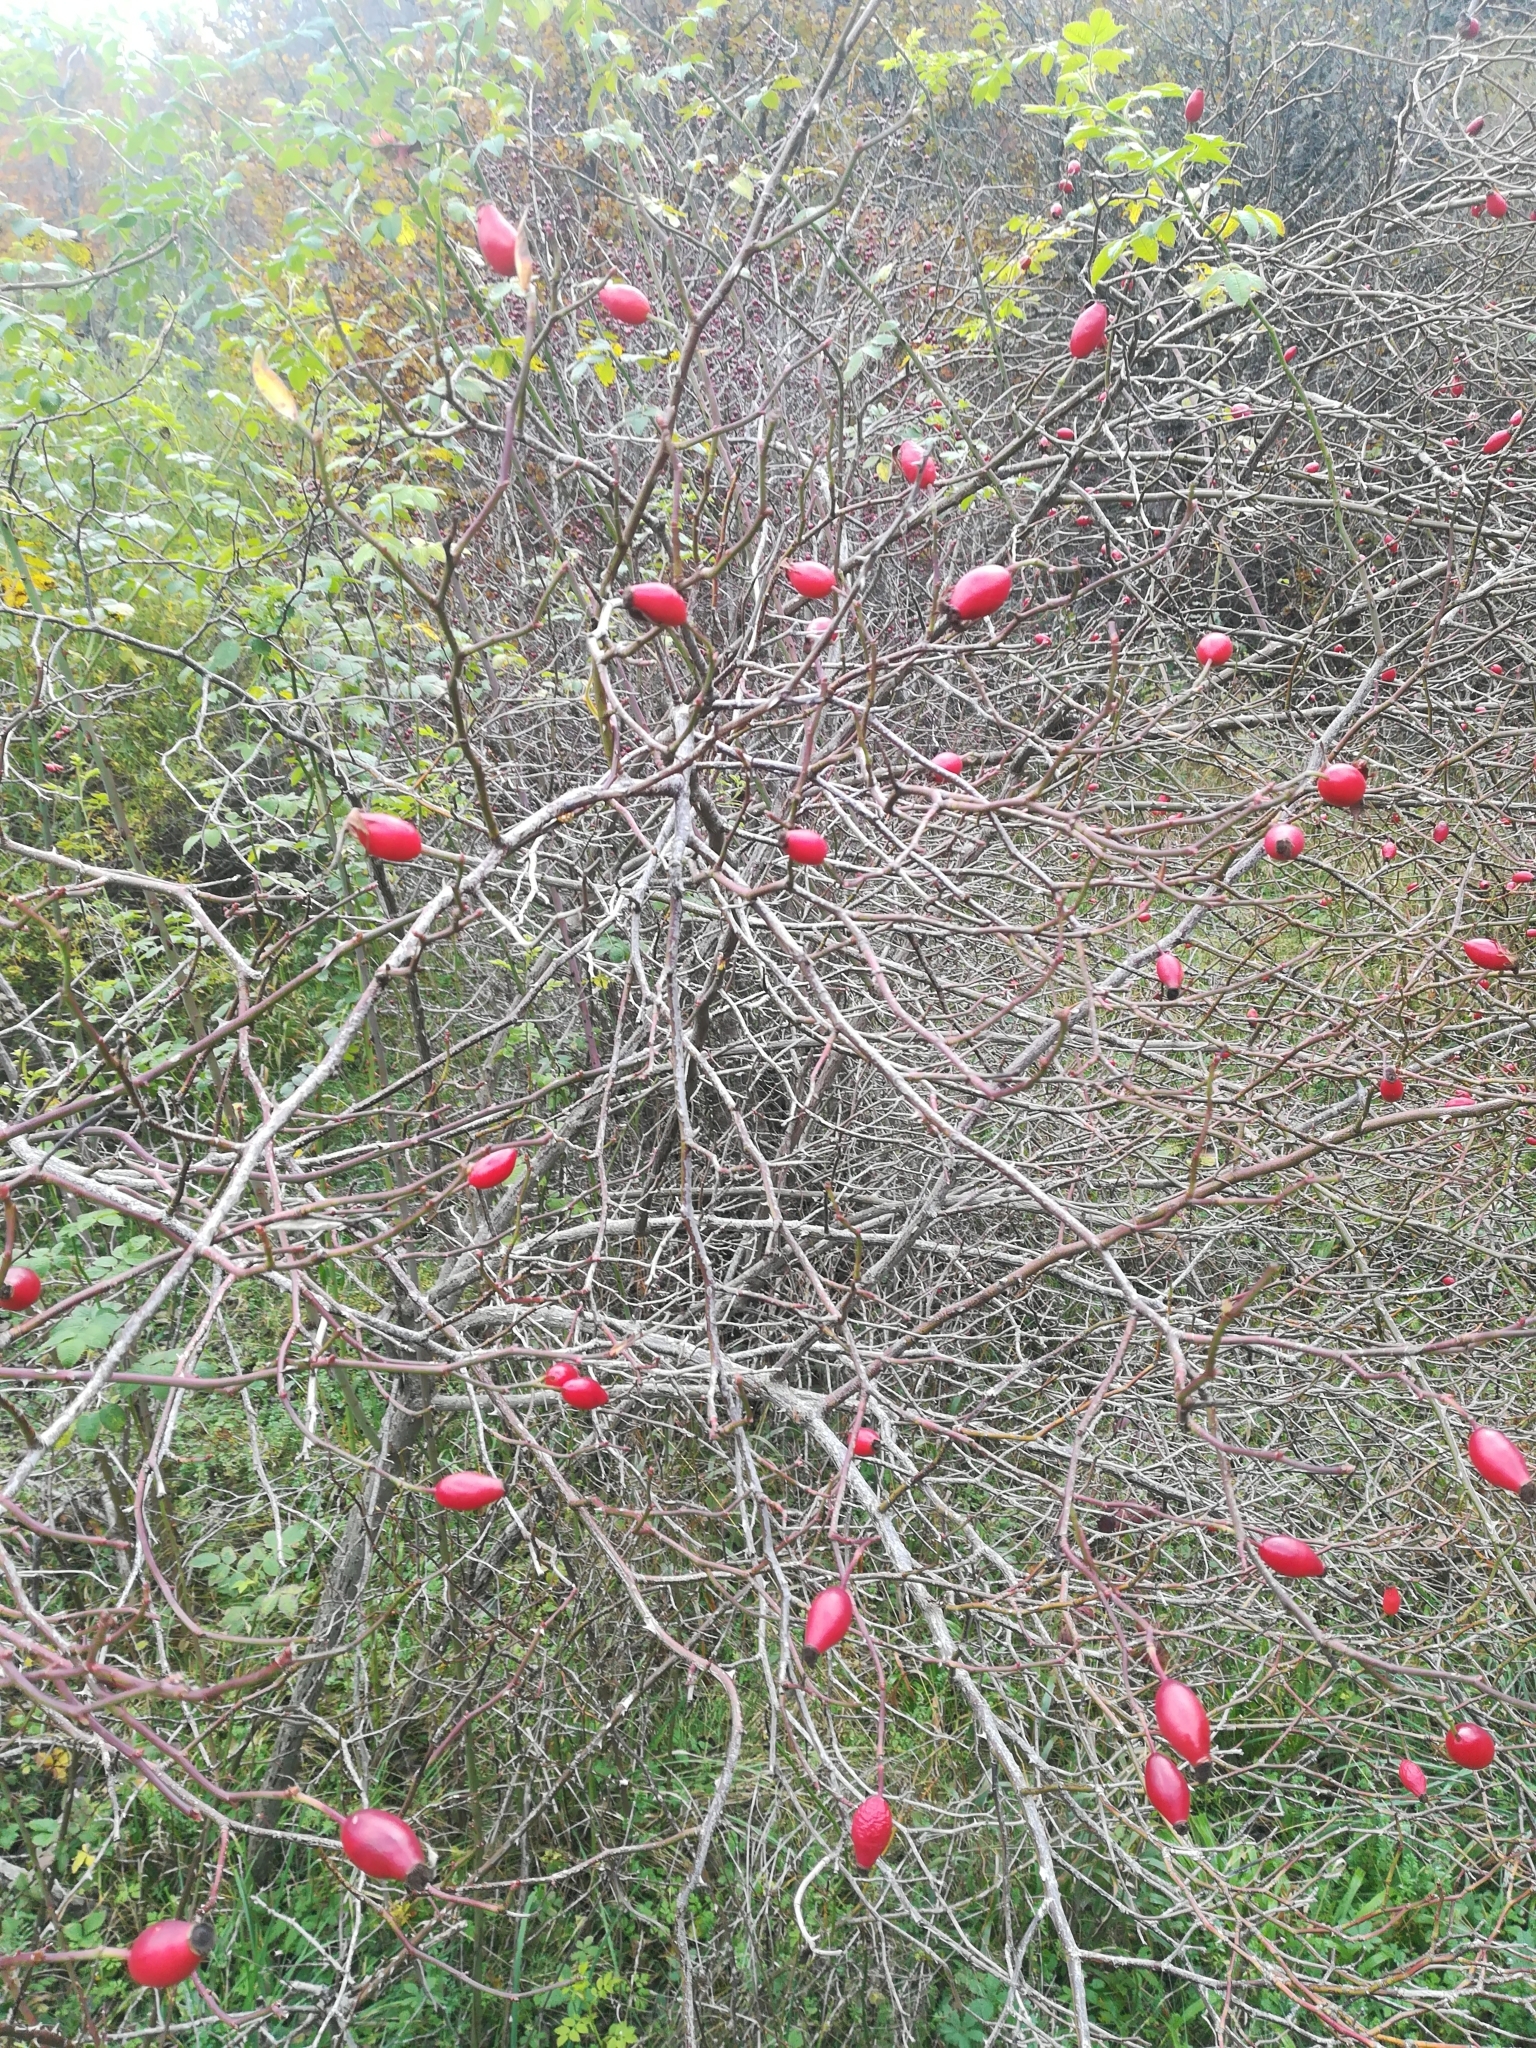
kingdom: Plantae
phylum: Tracheophyta
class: Magnoliopsida
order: Rosales
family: Rosaceae
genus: Rosa
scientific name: Rosa canina
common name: Dog rose
